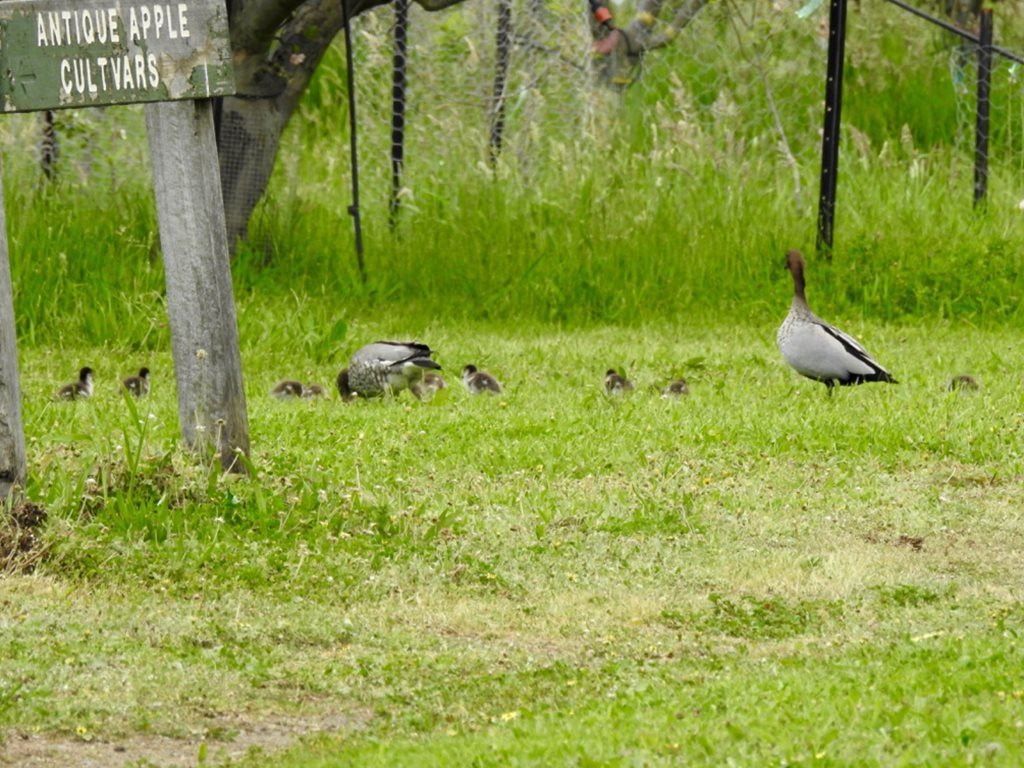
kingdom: Animalia
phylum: Chordata
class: Aves
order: Anseriformes
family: Anatidae
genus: Chenonetta
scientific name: Chenonetta jubata
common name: Maned duck
